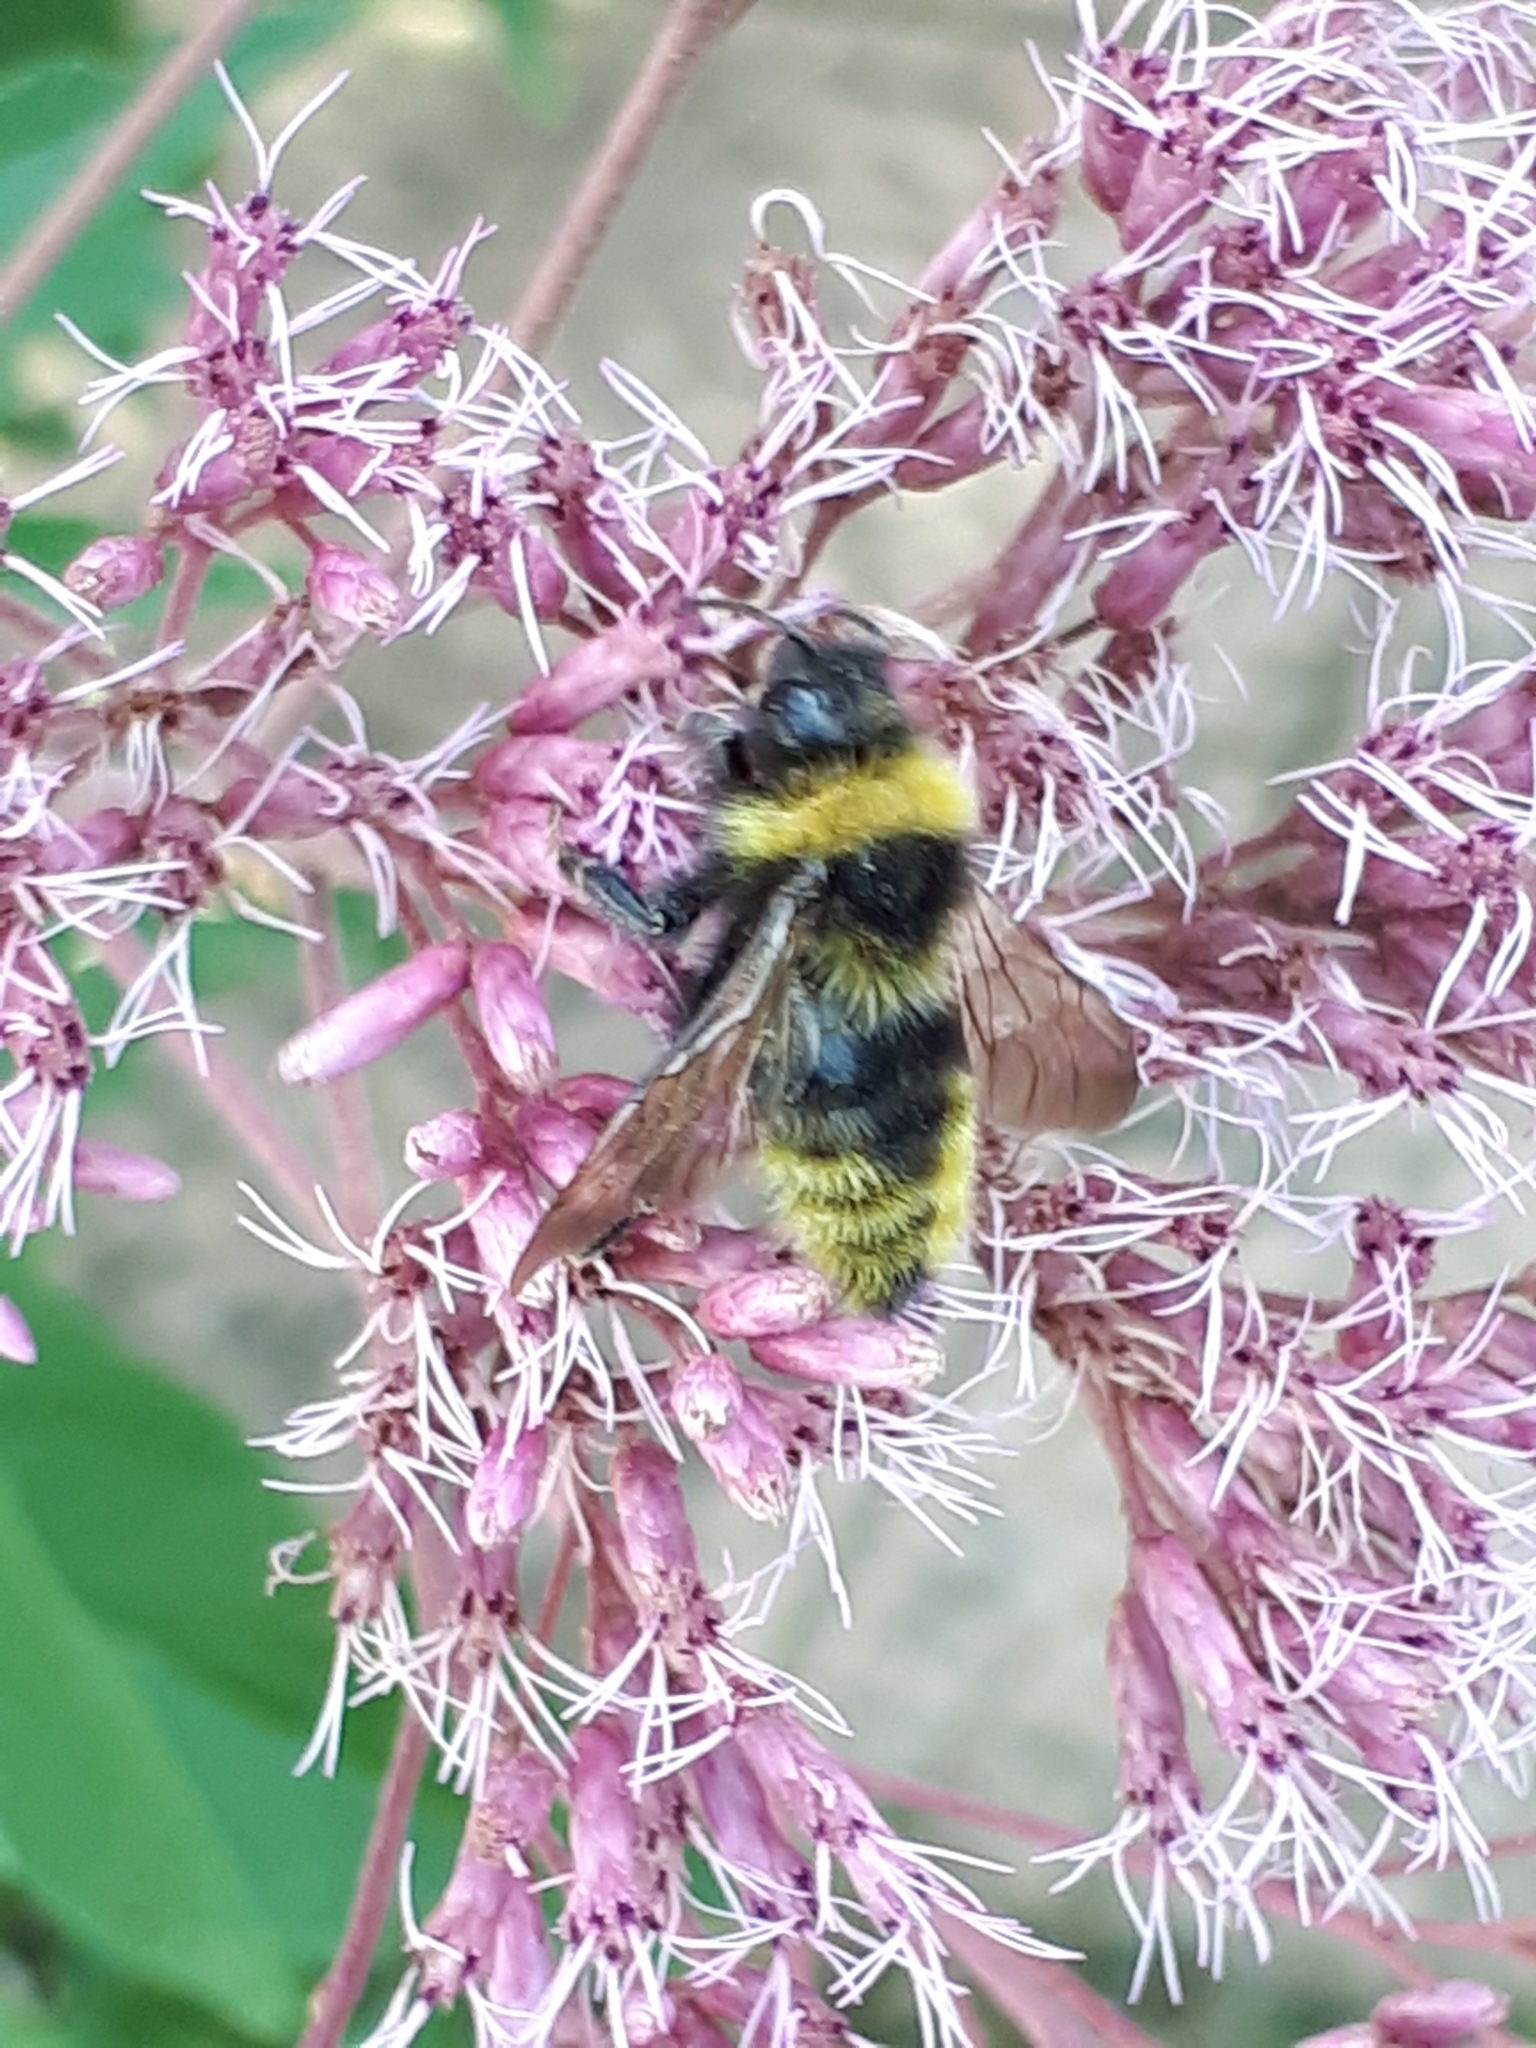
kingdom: Animalia
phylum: Arthropoda
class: Insecta
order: Hymenoptera
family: Apidae
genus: Bombus
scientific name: Bombus campestris
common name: Field cuckoo-bee
